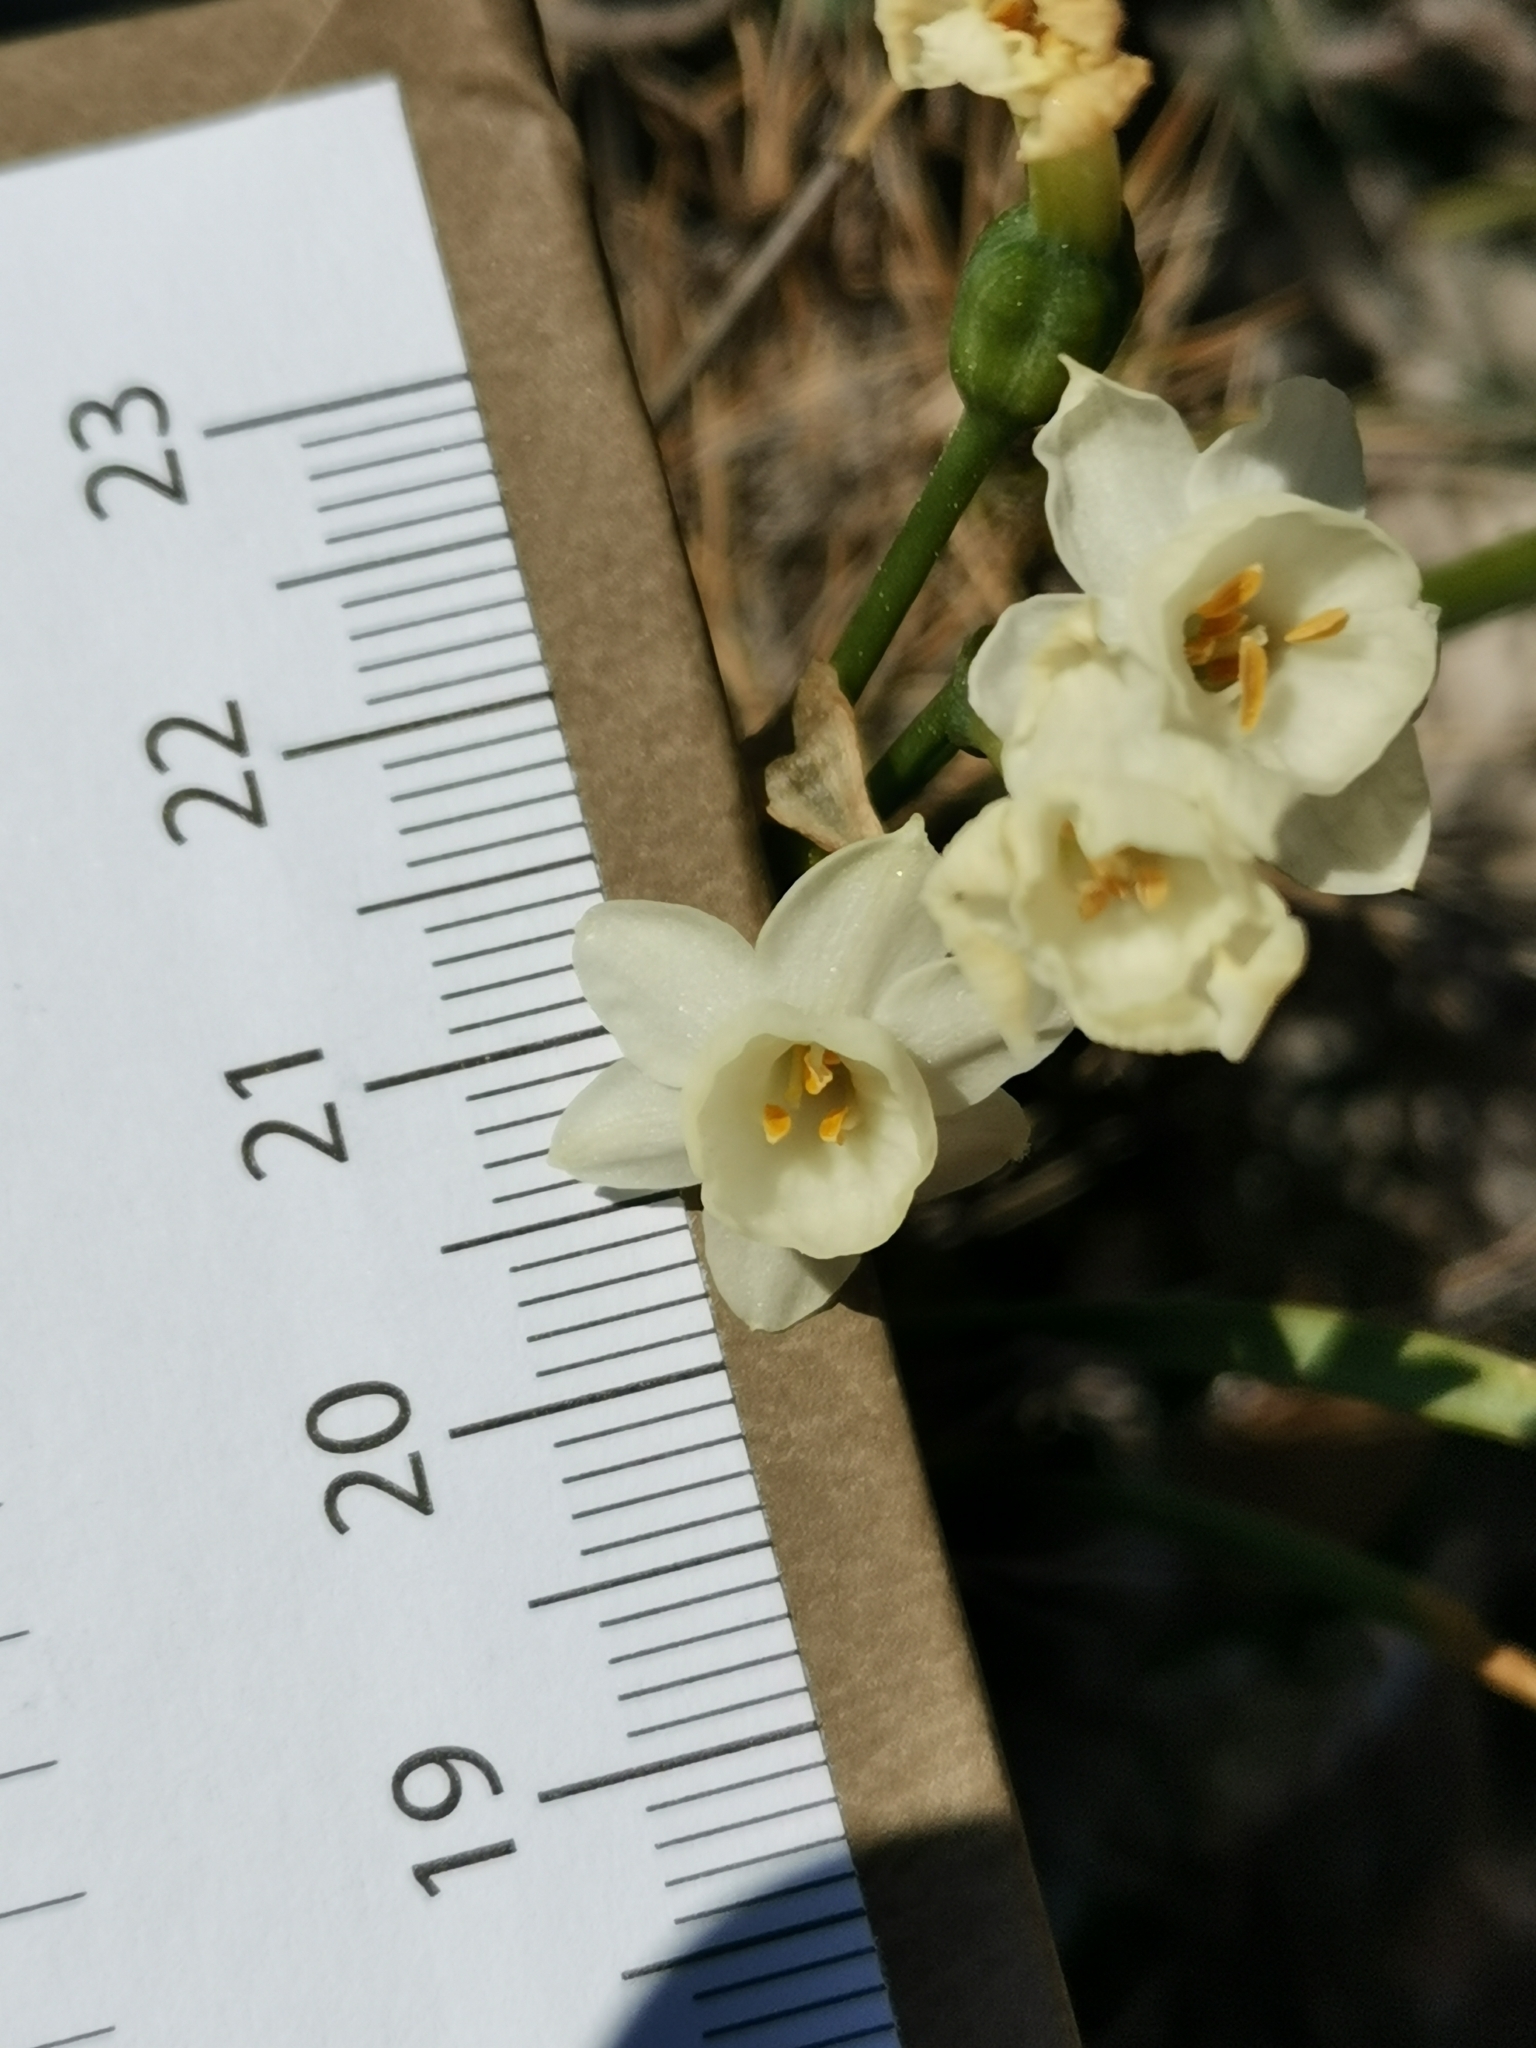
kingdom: Plantae
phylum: Tracheophyta
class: Liliopsida
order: Asparagales
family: Amaryllidaceae
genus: Narcissus
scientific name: Narcissus dubius
